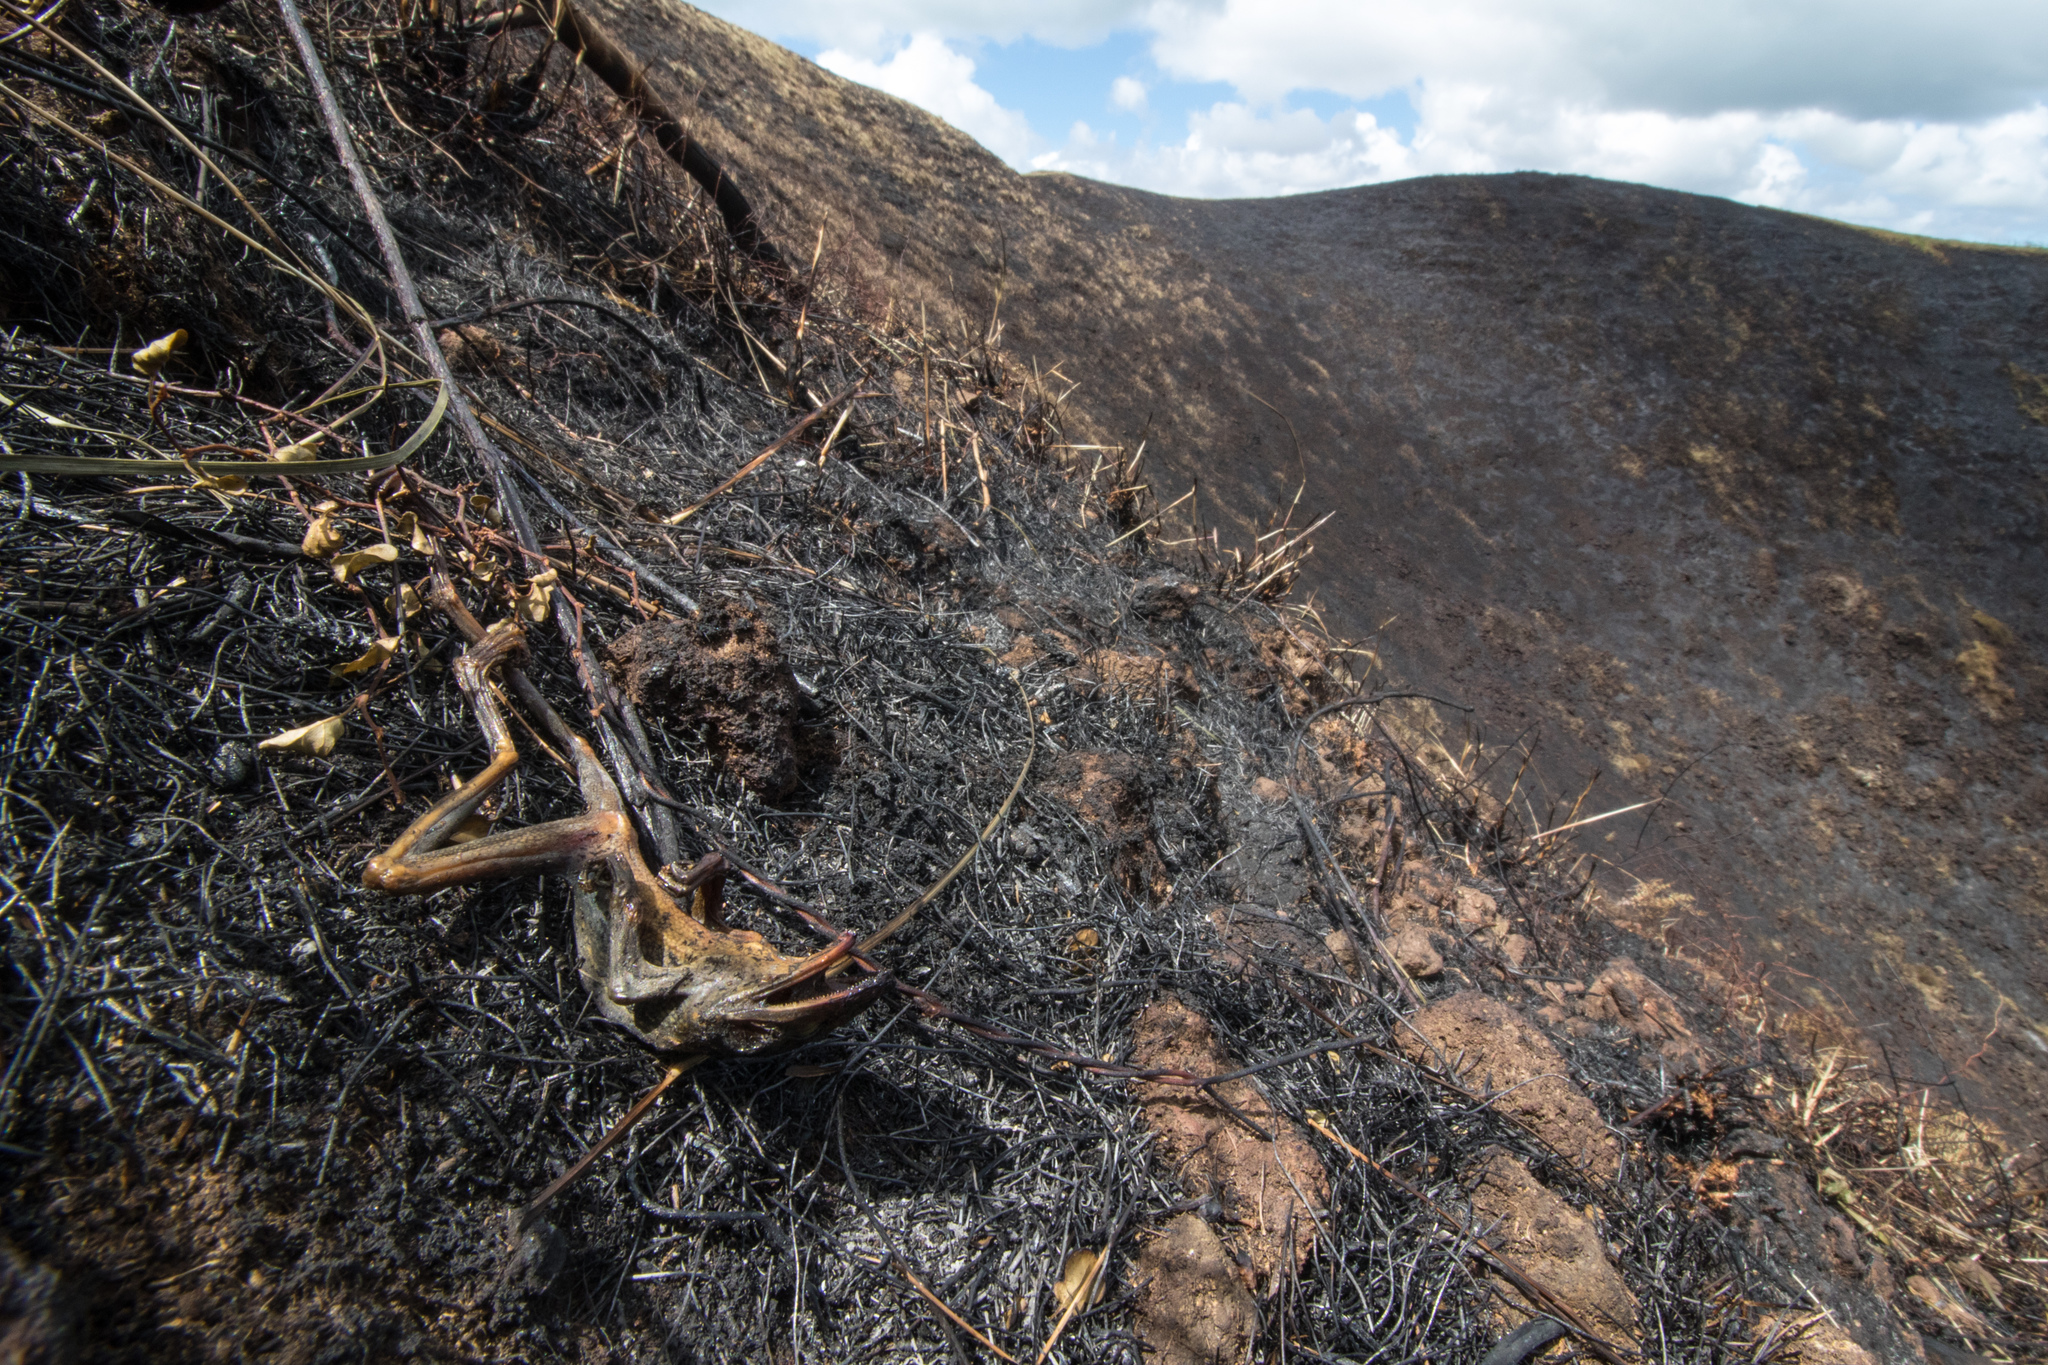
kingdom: Animalia
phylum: Chordata
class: Amphibia
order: Anura
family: Pelodryadidae
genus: Ranoidea
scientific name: Ranoidea aurea
